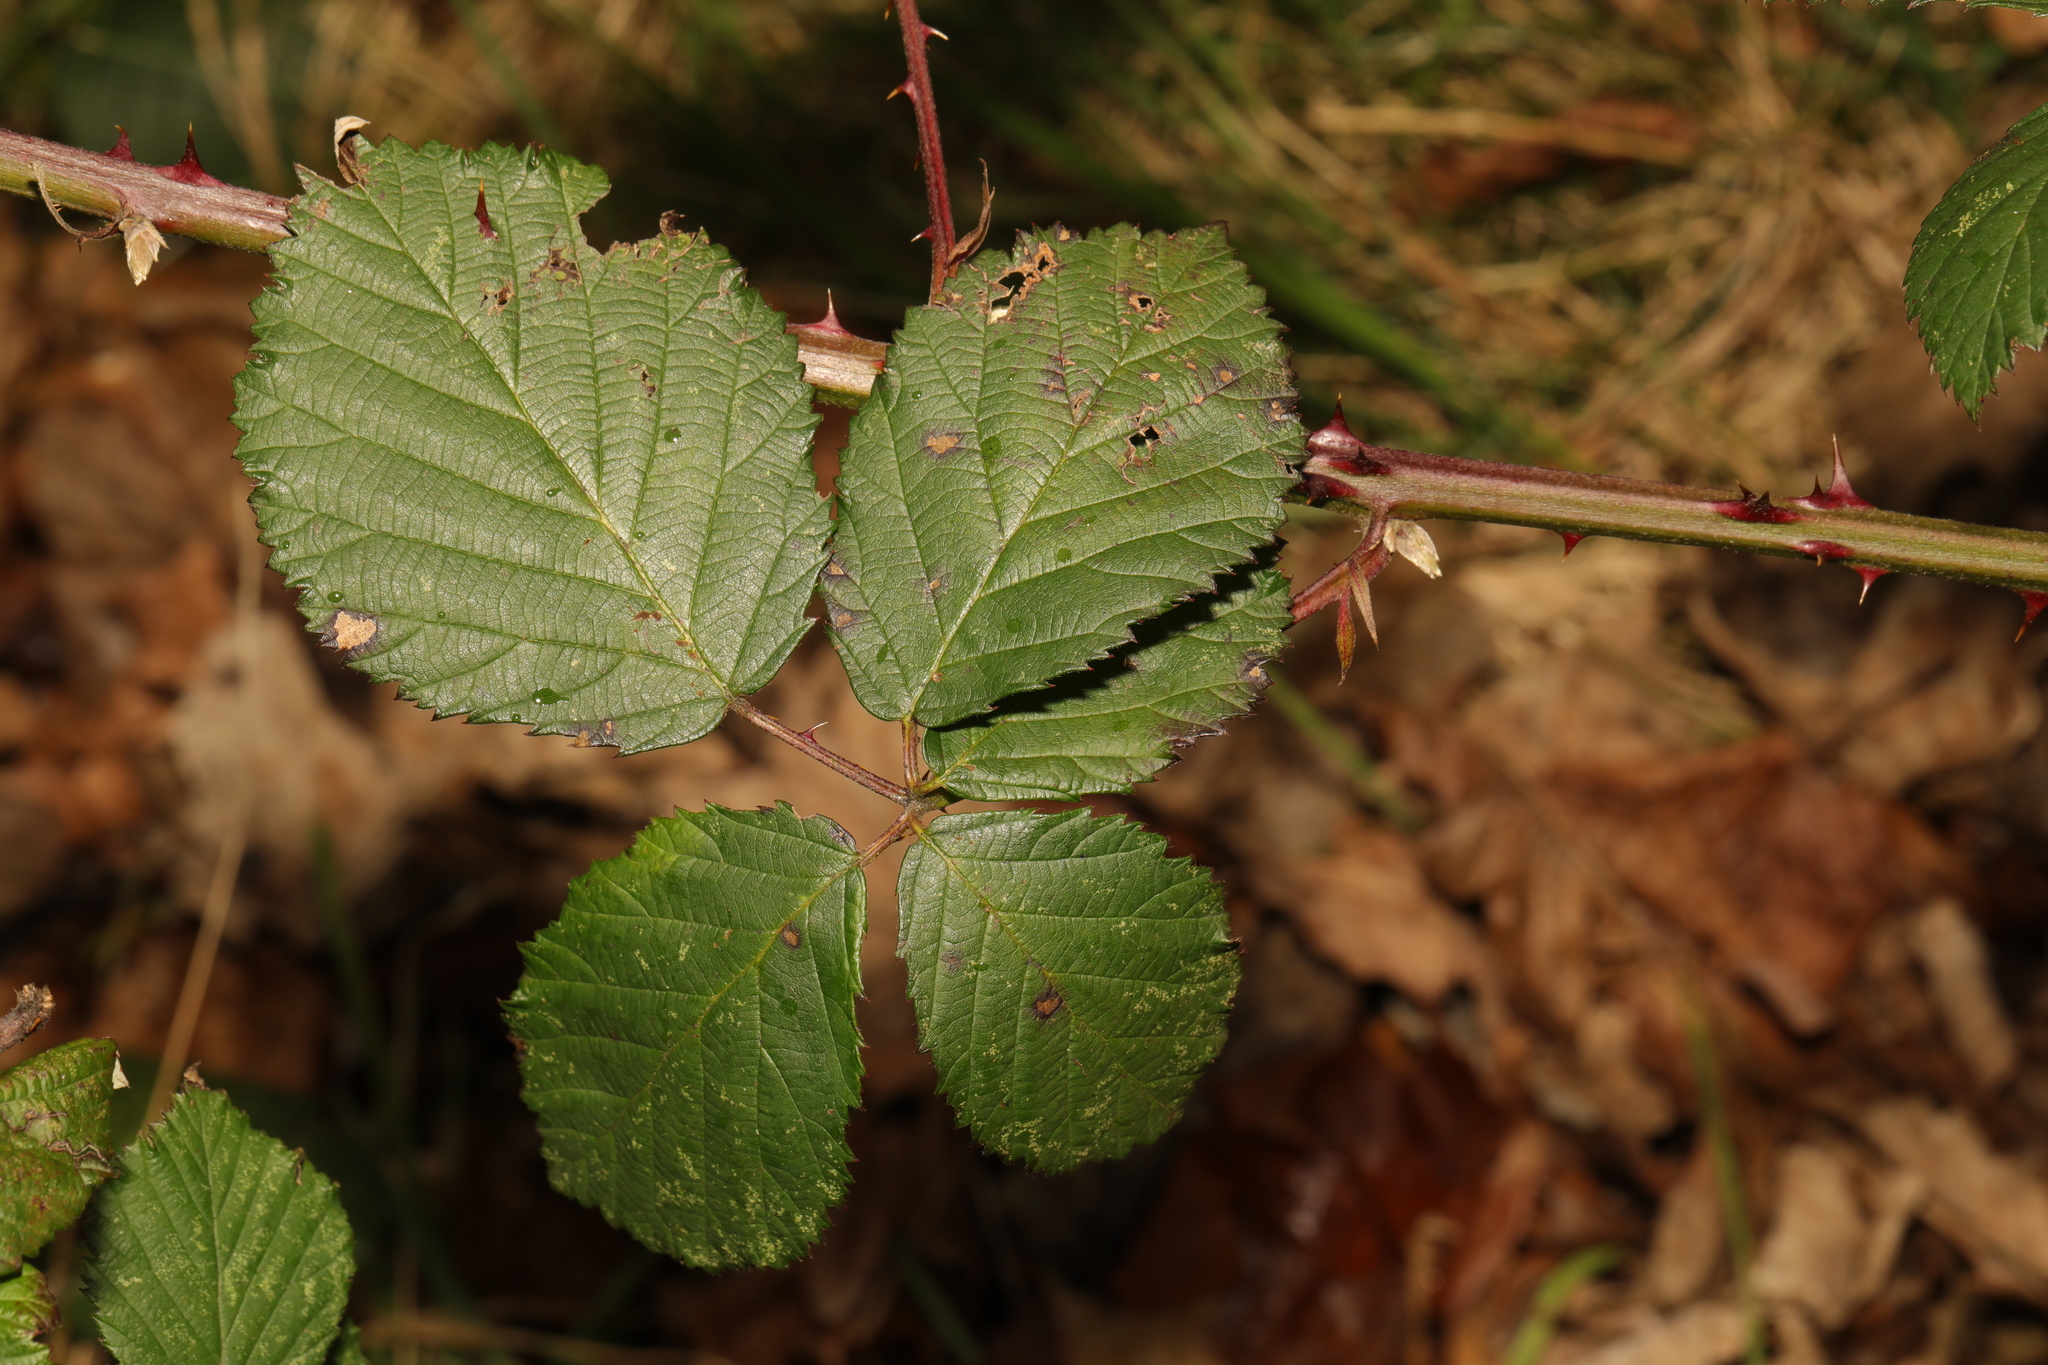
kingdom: Plantae
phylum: Tracheophyta
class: Magnoliopsida
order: Rosales
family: Rosaceae
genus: Rubus
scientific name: Rubus armeniacus
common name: Himalayan blackberry
